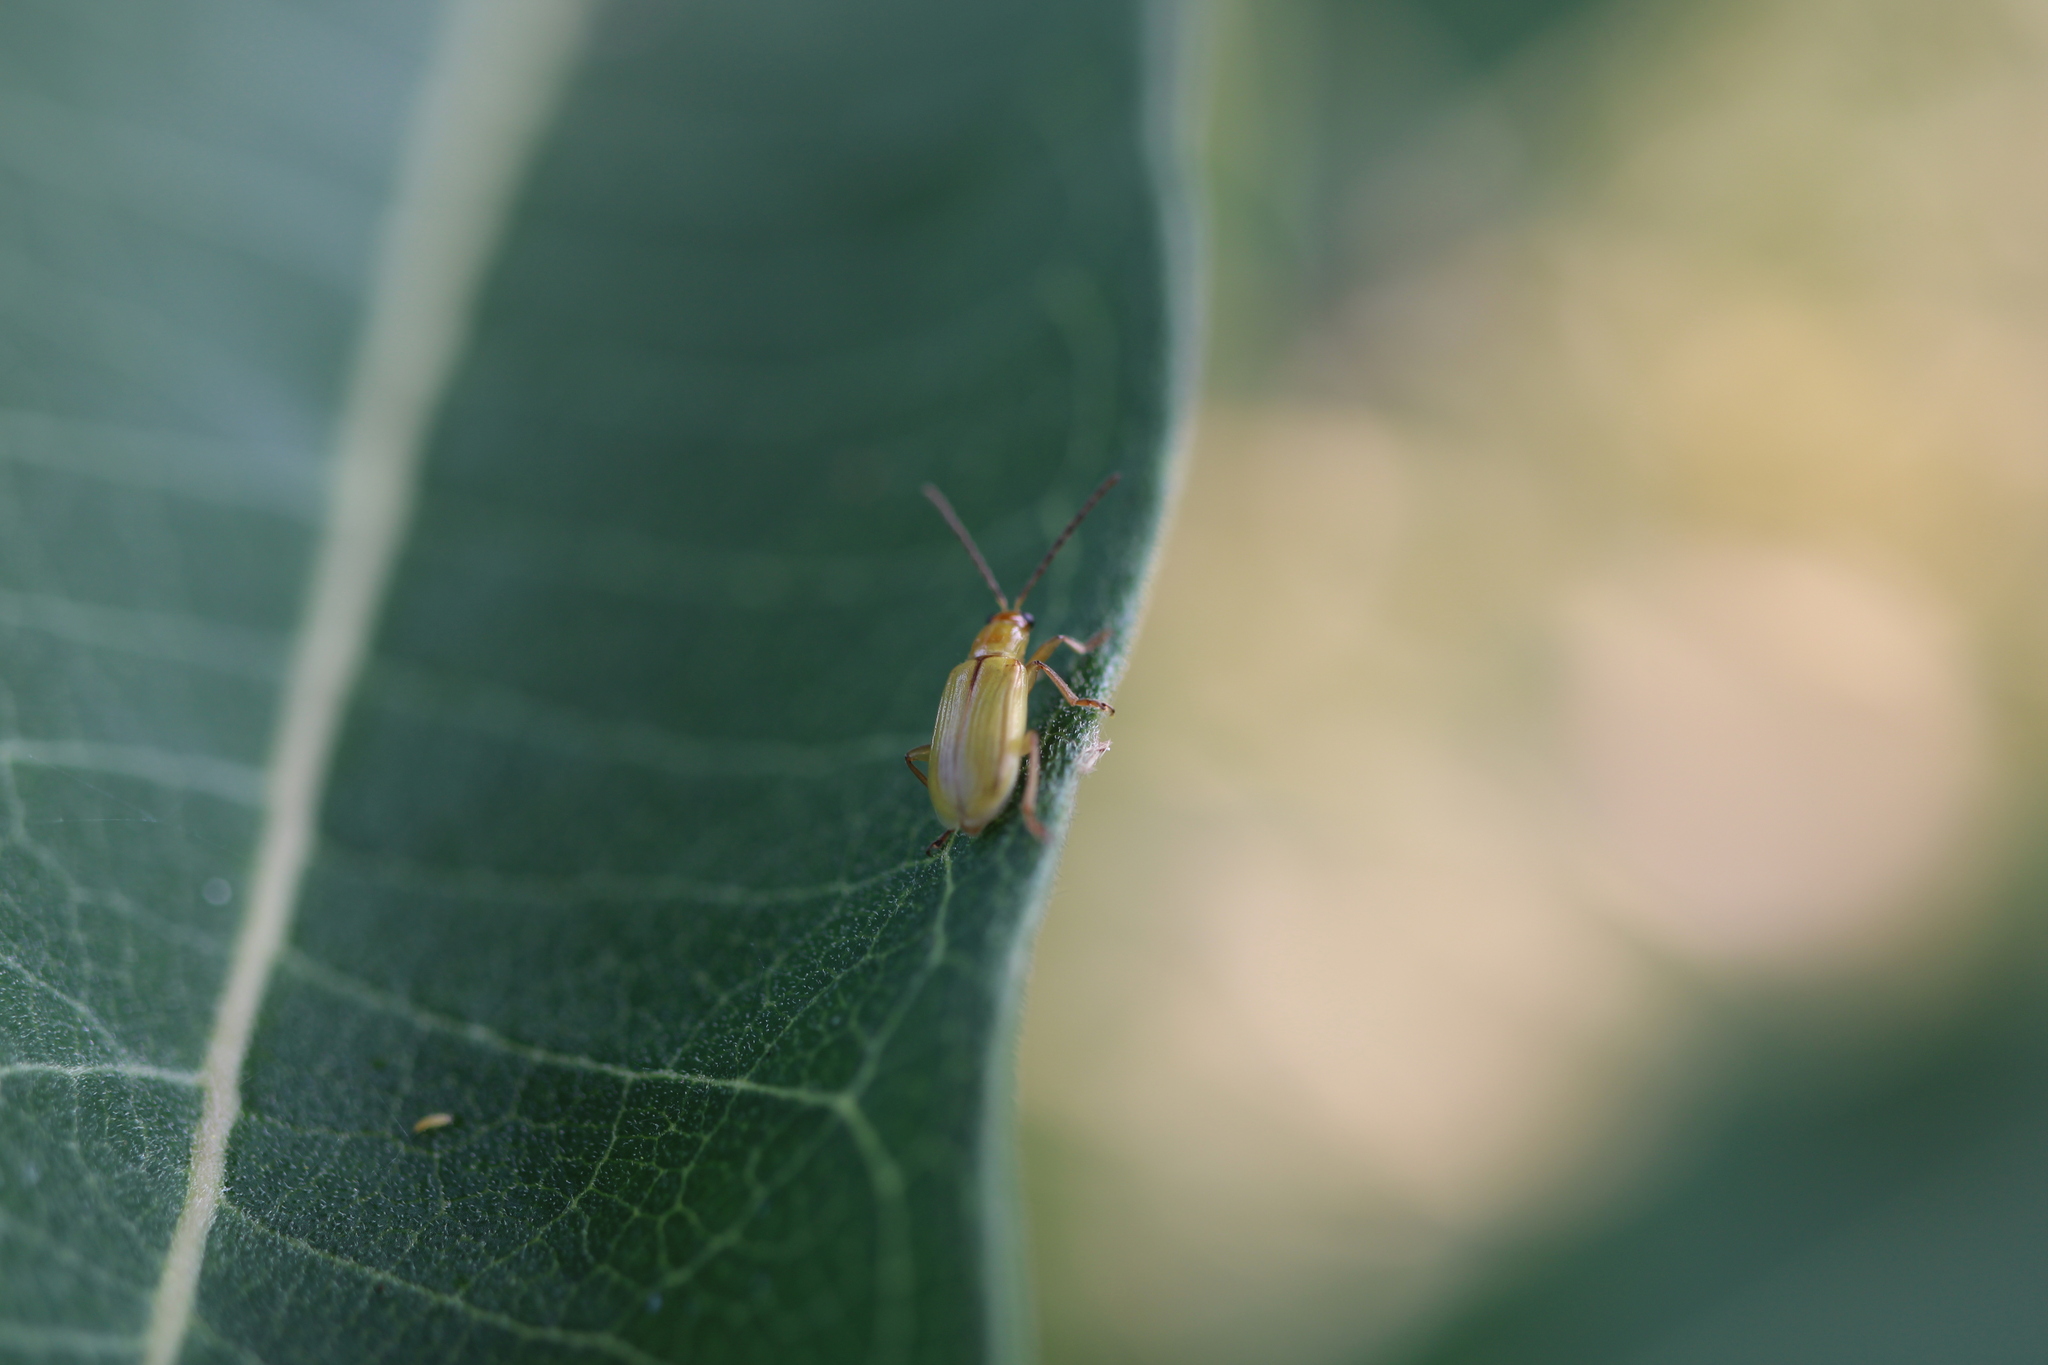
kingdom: Animalia
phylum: Arthropoda
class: Insecta
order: Coleoptera
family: Chrysomelidae
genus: Diabrotica
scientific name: Diabrotica barberi
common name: Northern corn rootworm
